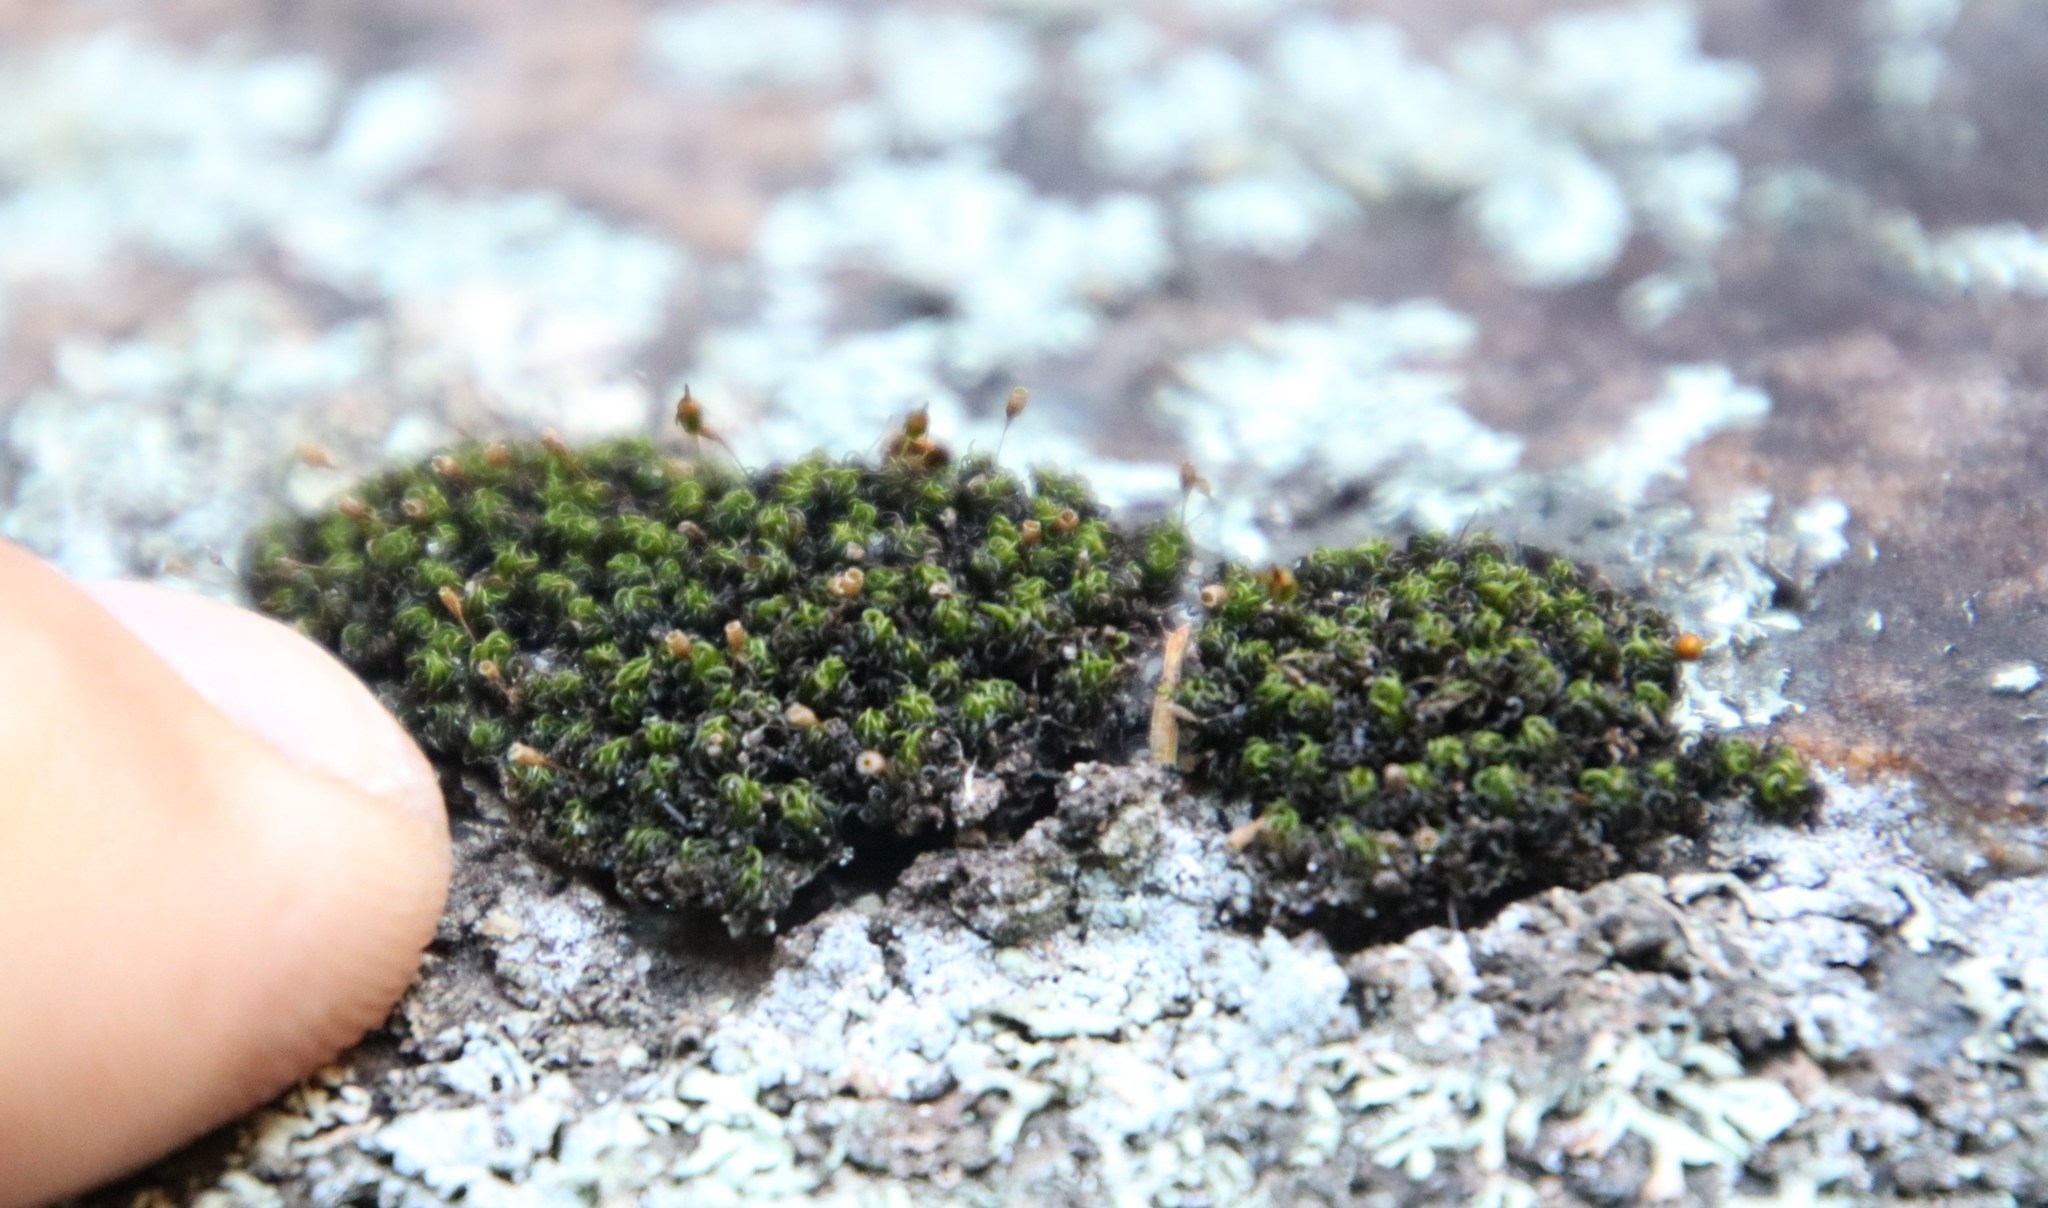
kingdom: Plantae
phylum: Bryophyta
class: Bryopsida
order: Grimmiales
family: Ptychomitriaceae
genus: Ptychomitrium
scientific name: Ptychomitrium crispatum
